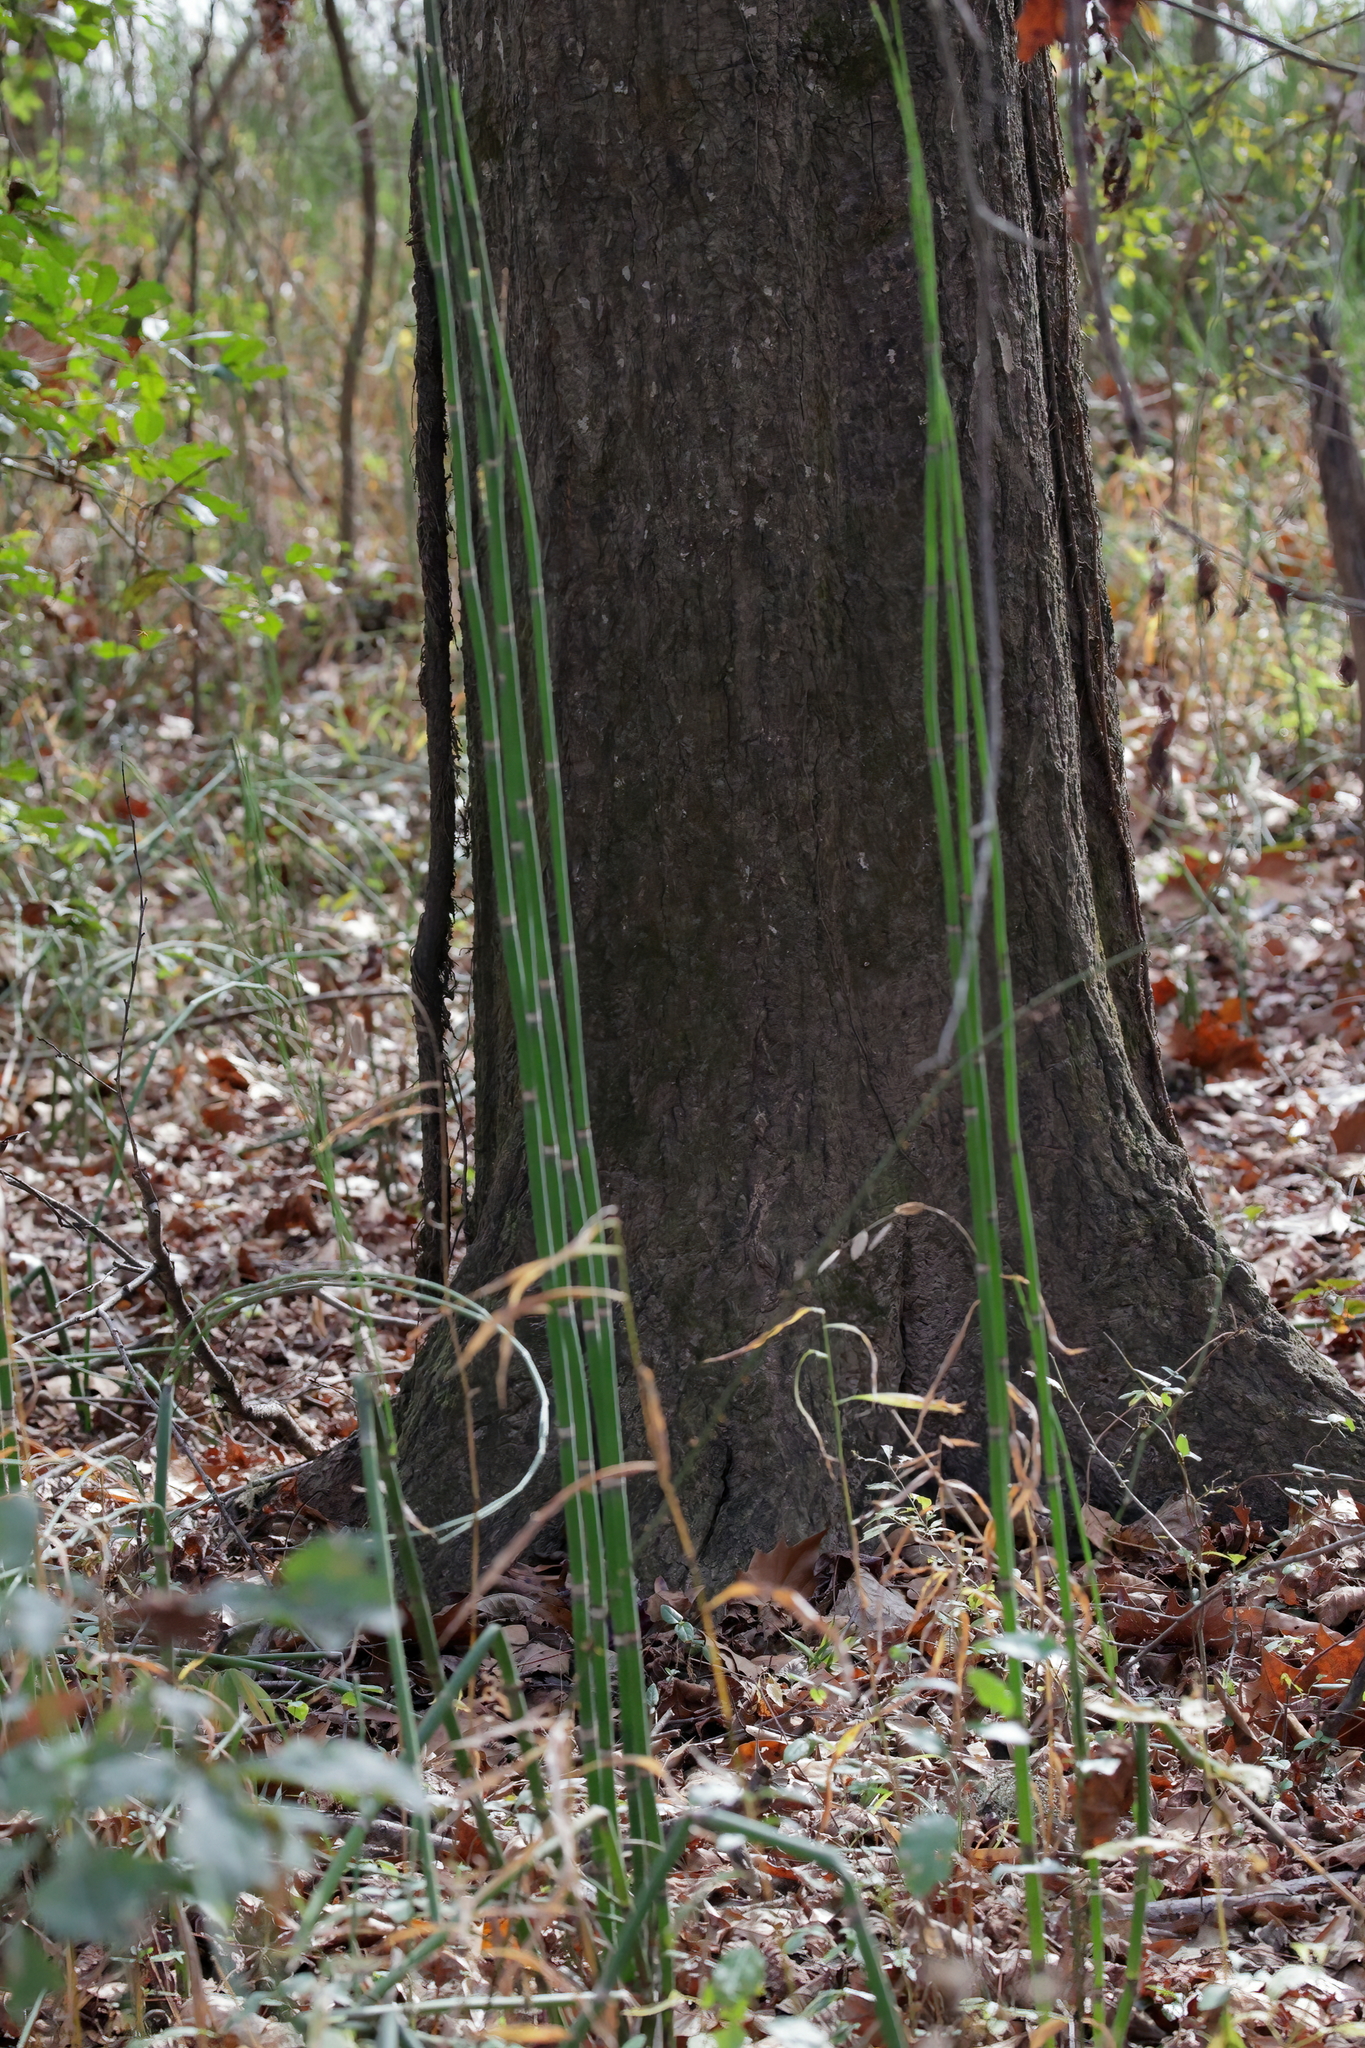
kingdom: Plantae
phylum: Tracheophyta
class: Polypodiopsida
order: Equisetales
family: Equisetaceae
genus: Equisetum
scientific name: Equisetum praealtum
